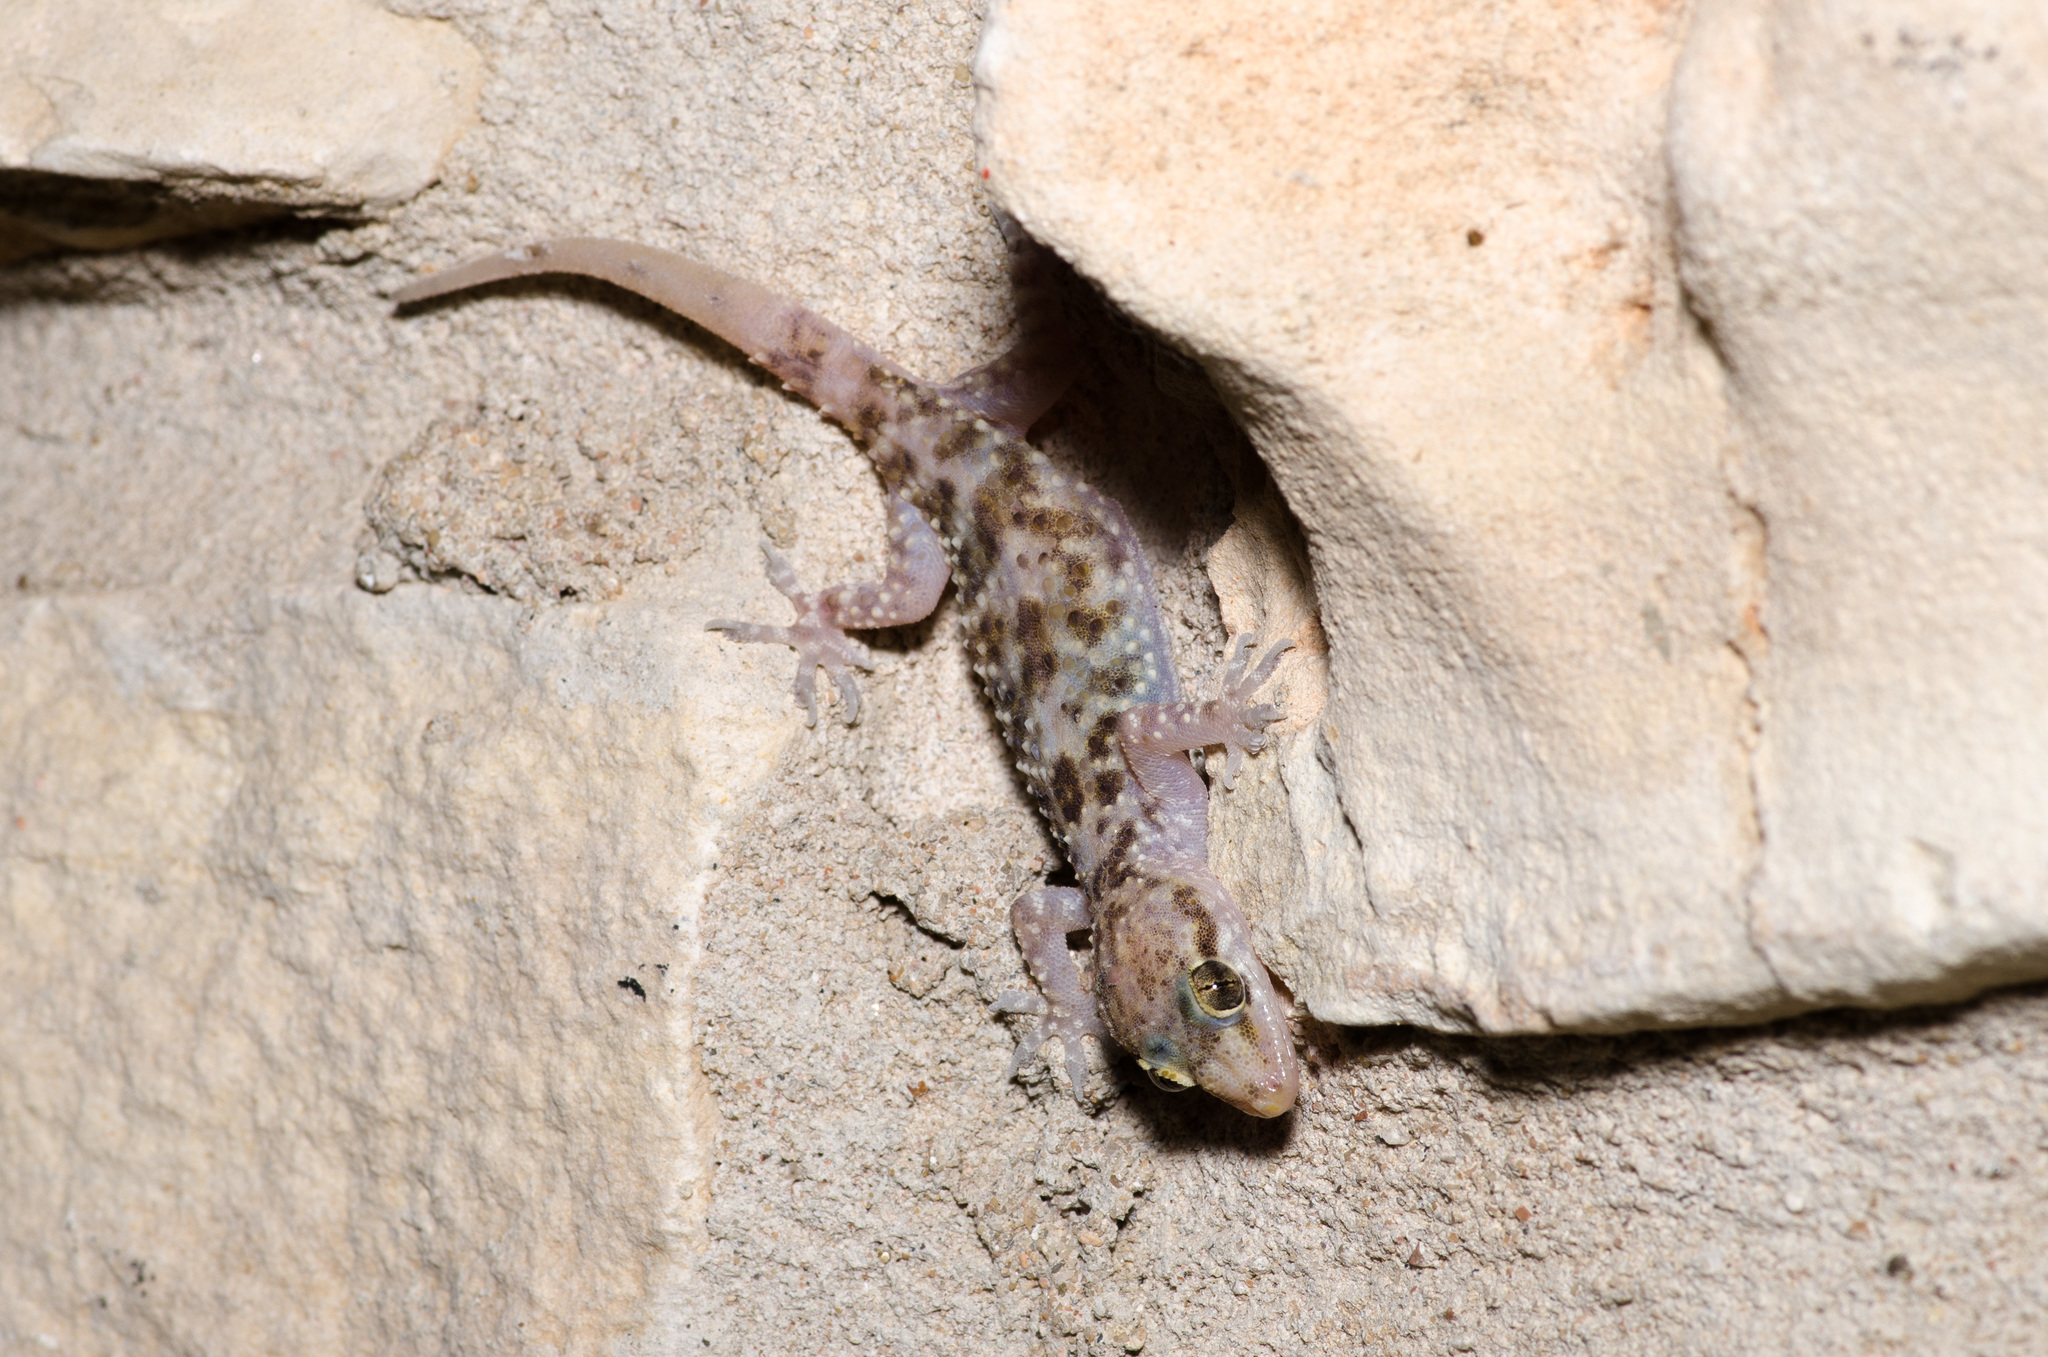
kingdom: Animalia
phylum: Chordata
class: Squamata
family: Gekkonidae
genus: Hemidactylus
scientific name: Hemidactylus turcicus
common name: Turkish gecko
